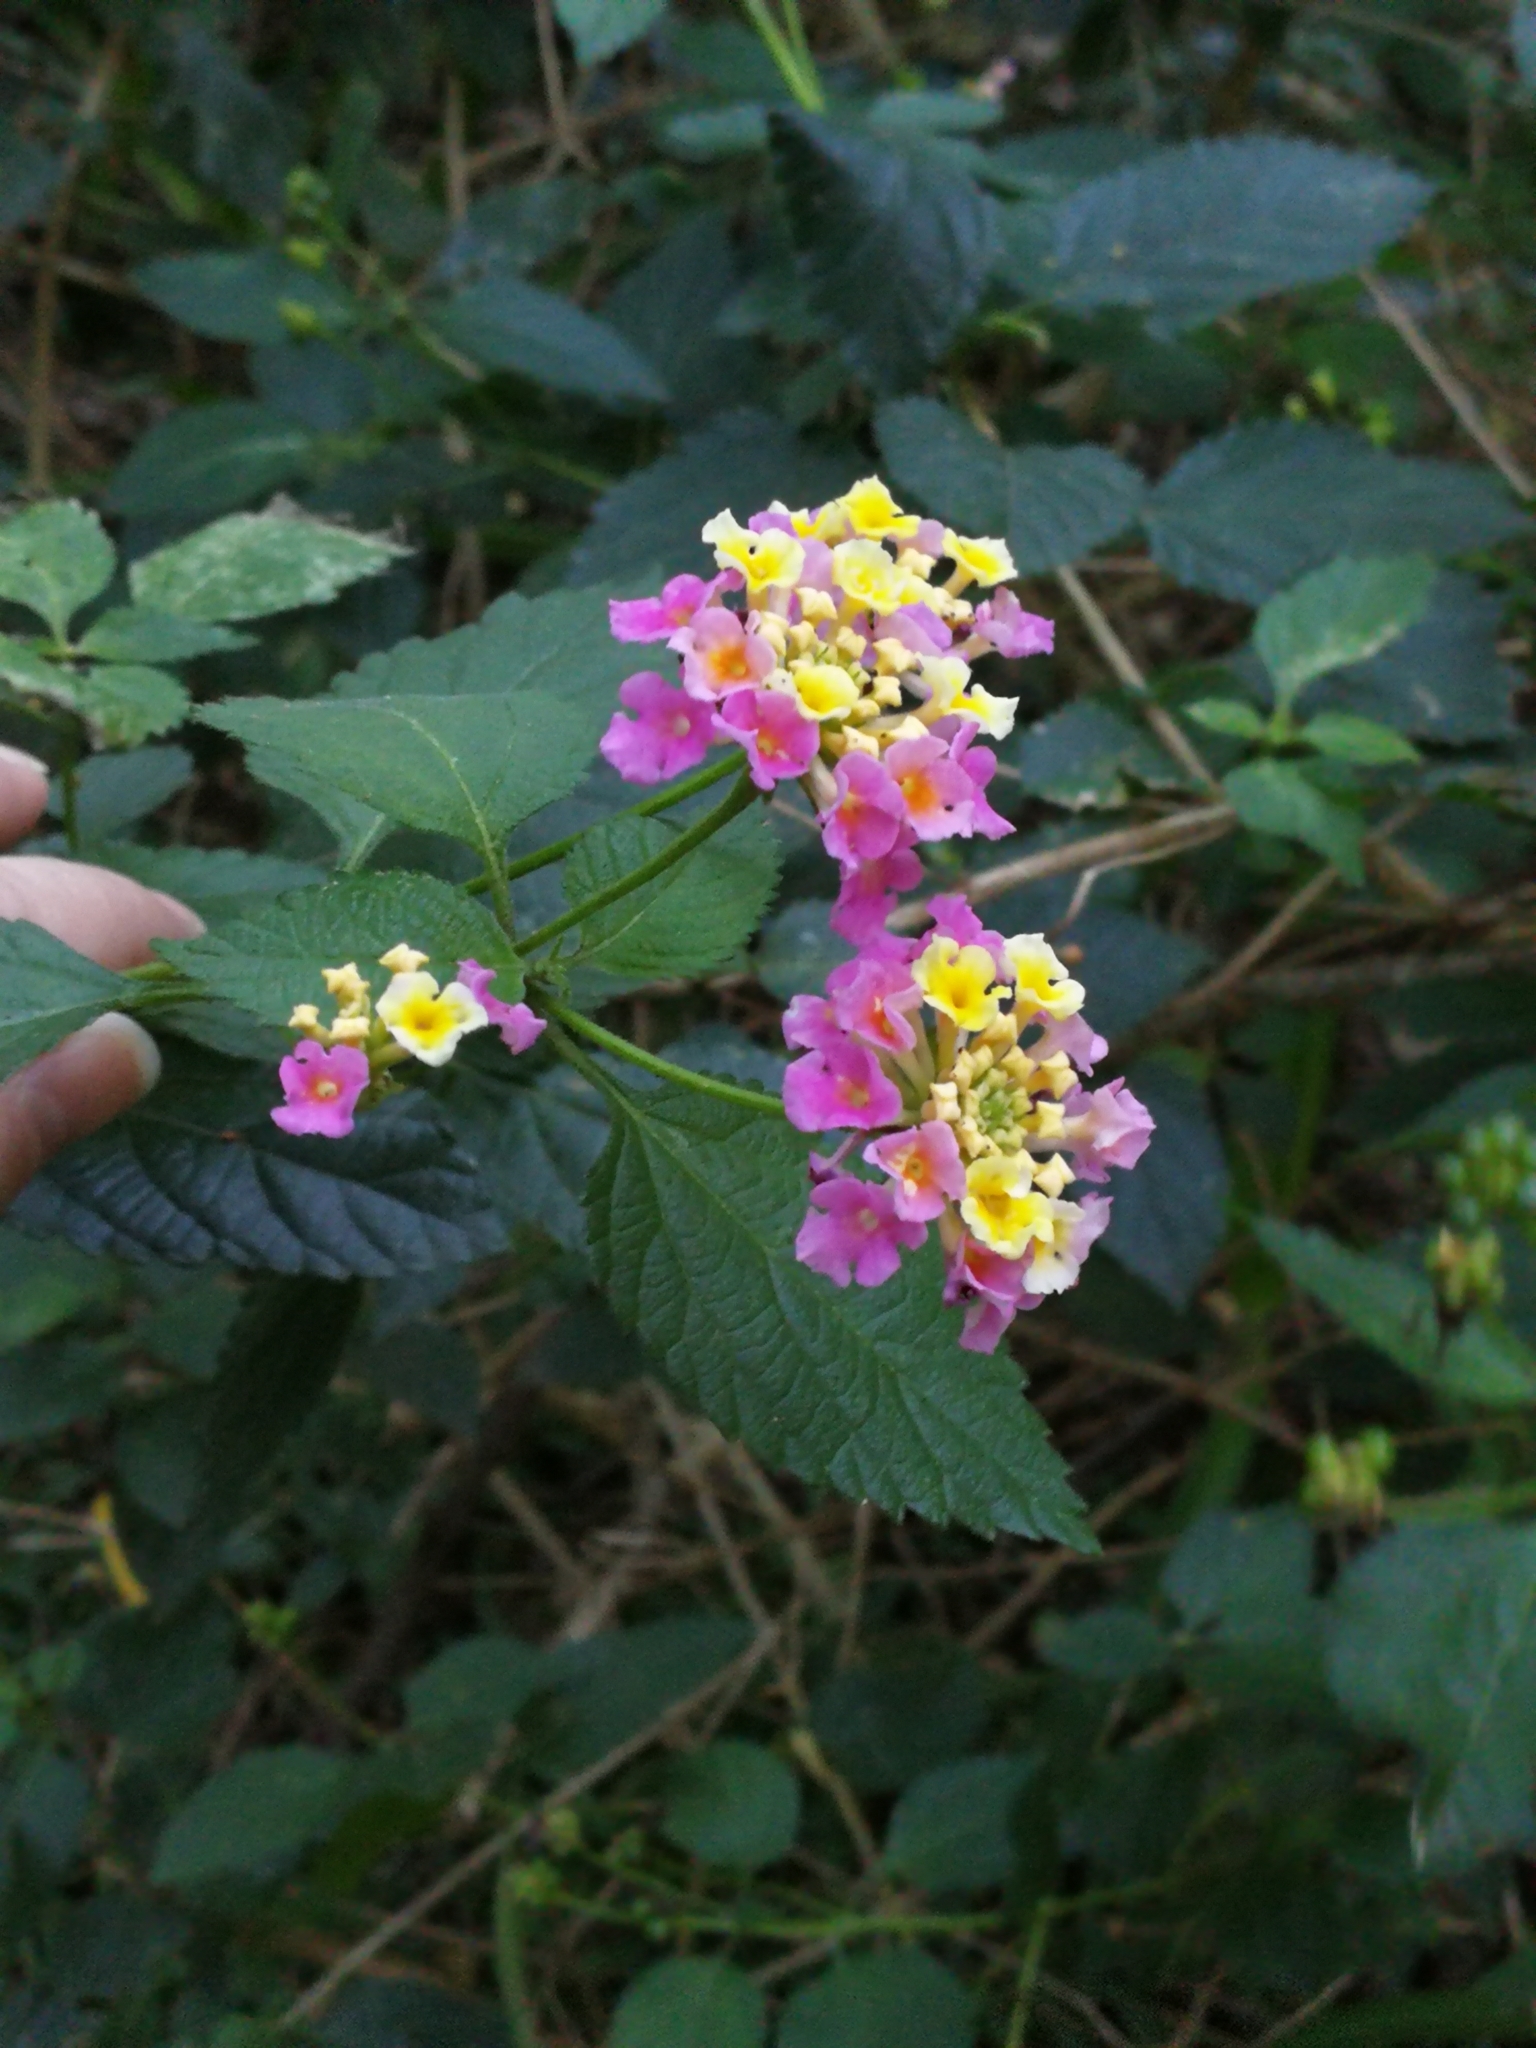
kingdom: Plantae
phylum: Tracheophyta
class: Magnoliopsida
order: Lamiales
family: Verbenaceae
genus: Lantana
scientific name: Lantana camara
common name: Lantana
